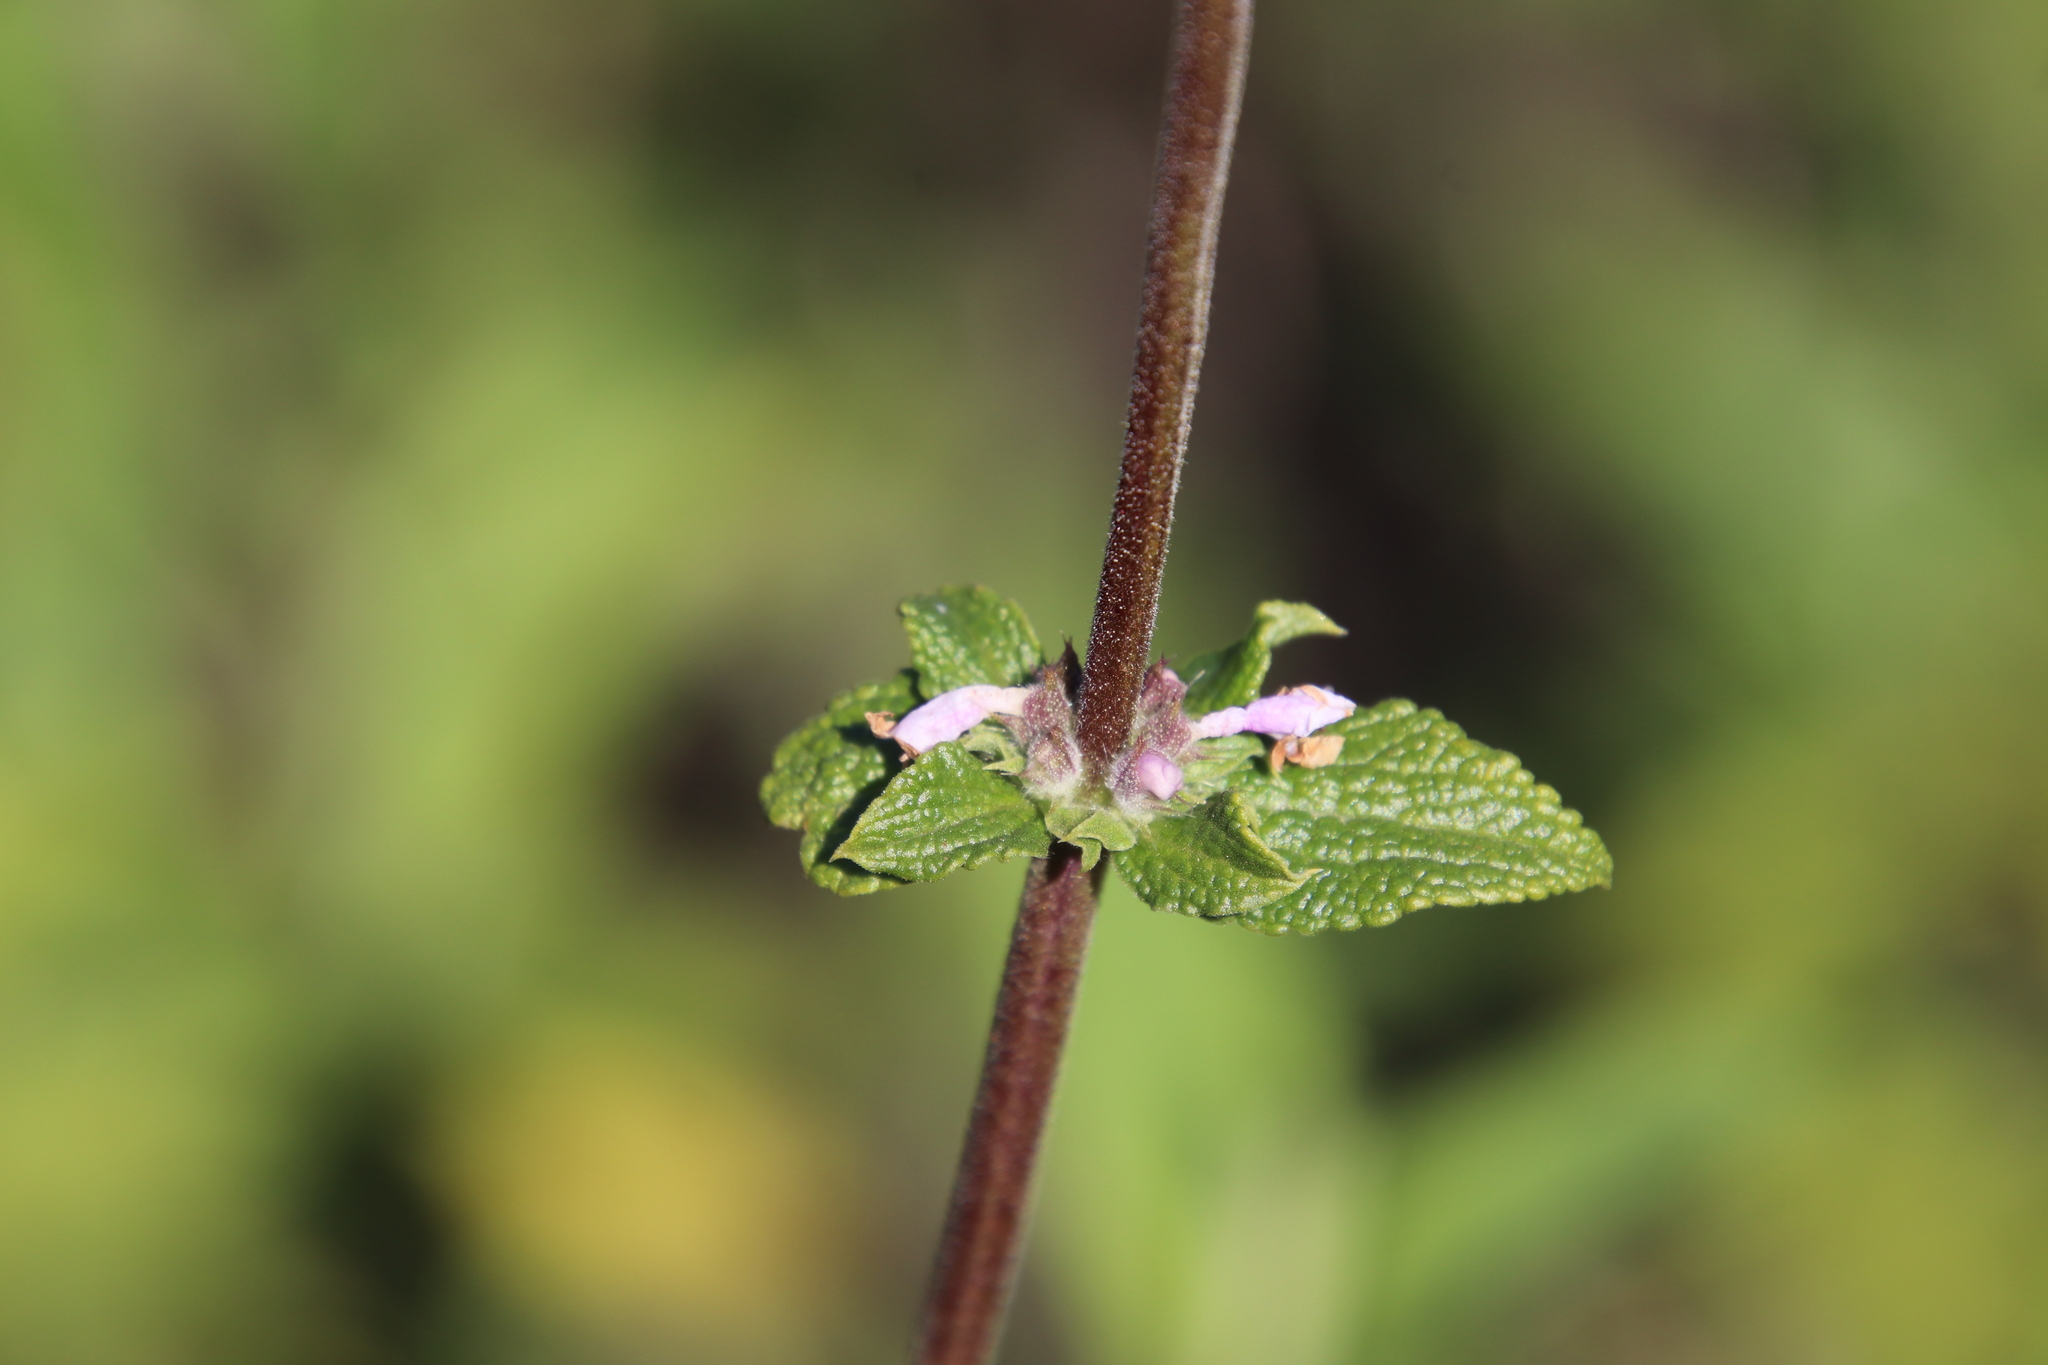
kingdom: Plantae
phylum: Tracheophyta
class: Magnoliopsida
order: Lamiales
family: Lamiaceae
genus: Salvia
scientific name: Salvia mellifera
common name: Black sage
